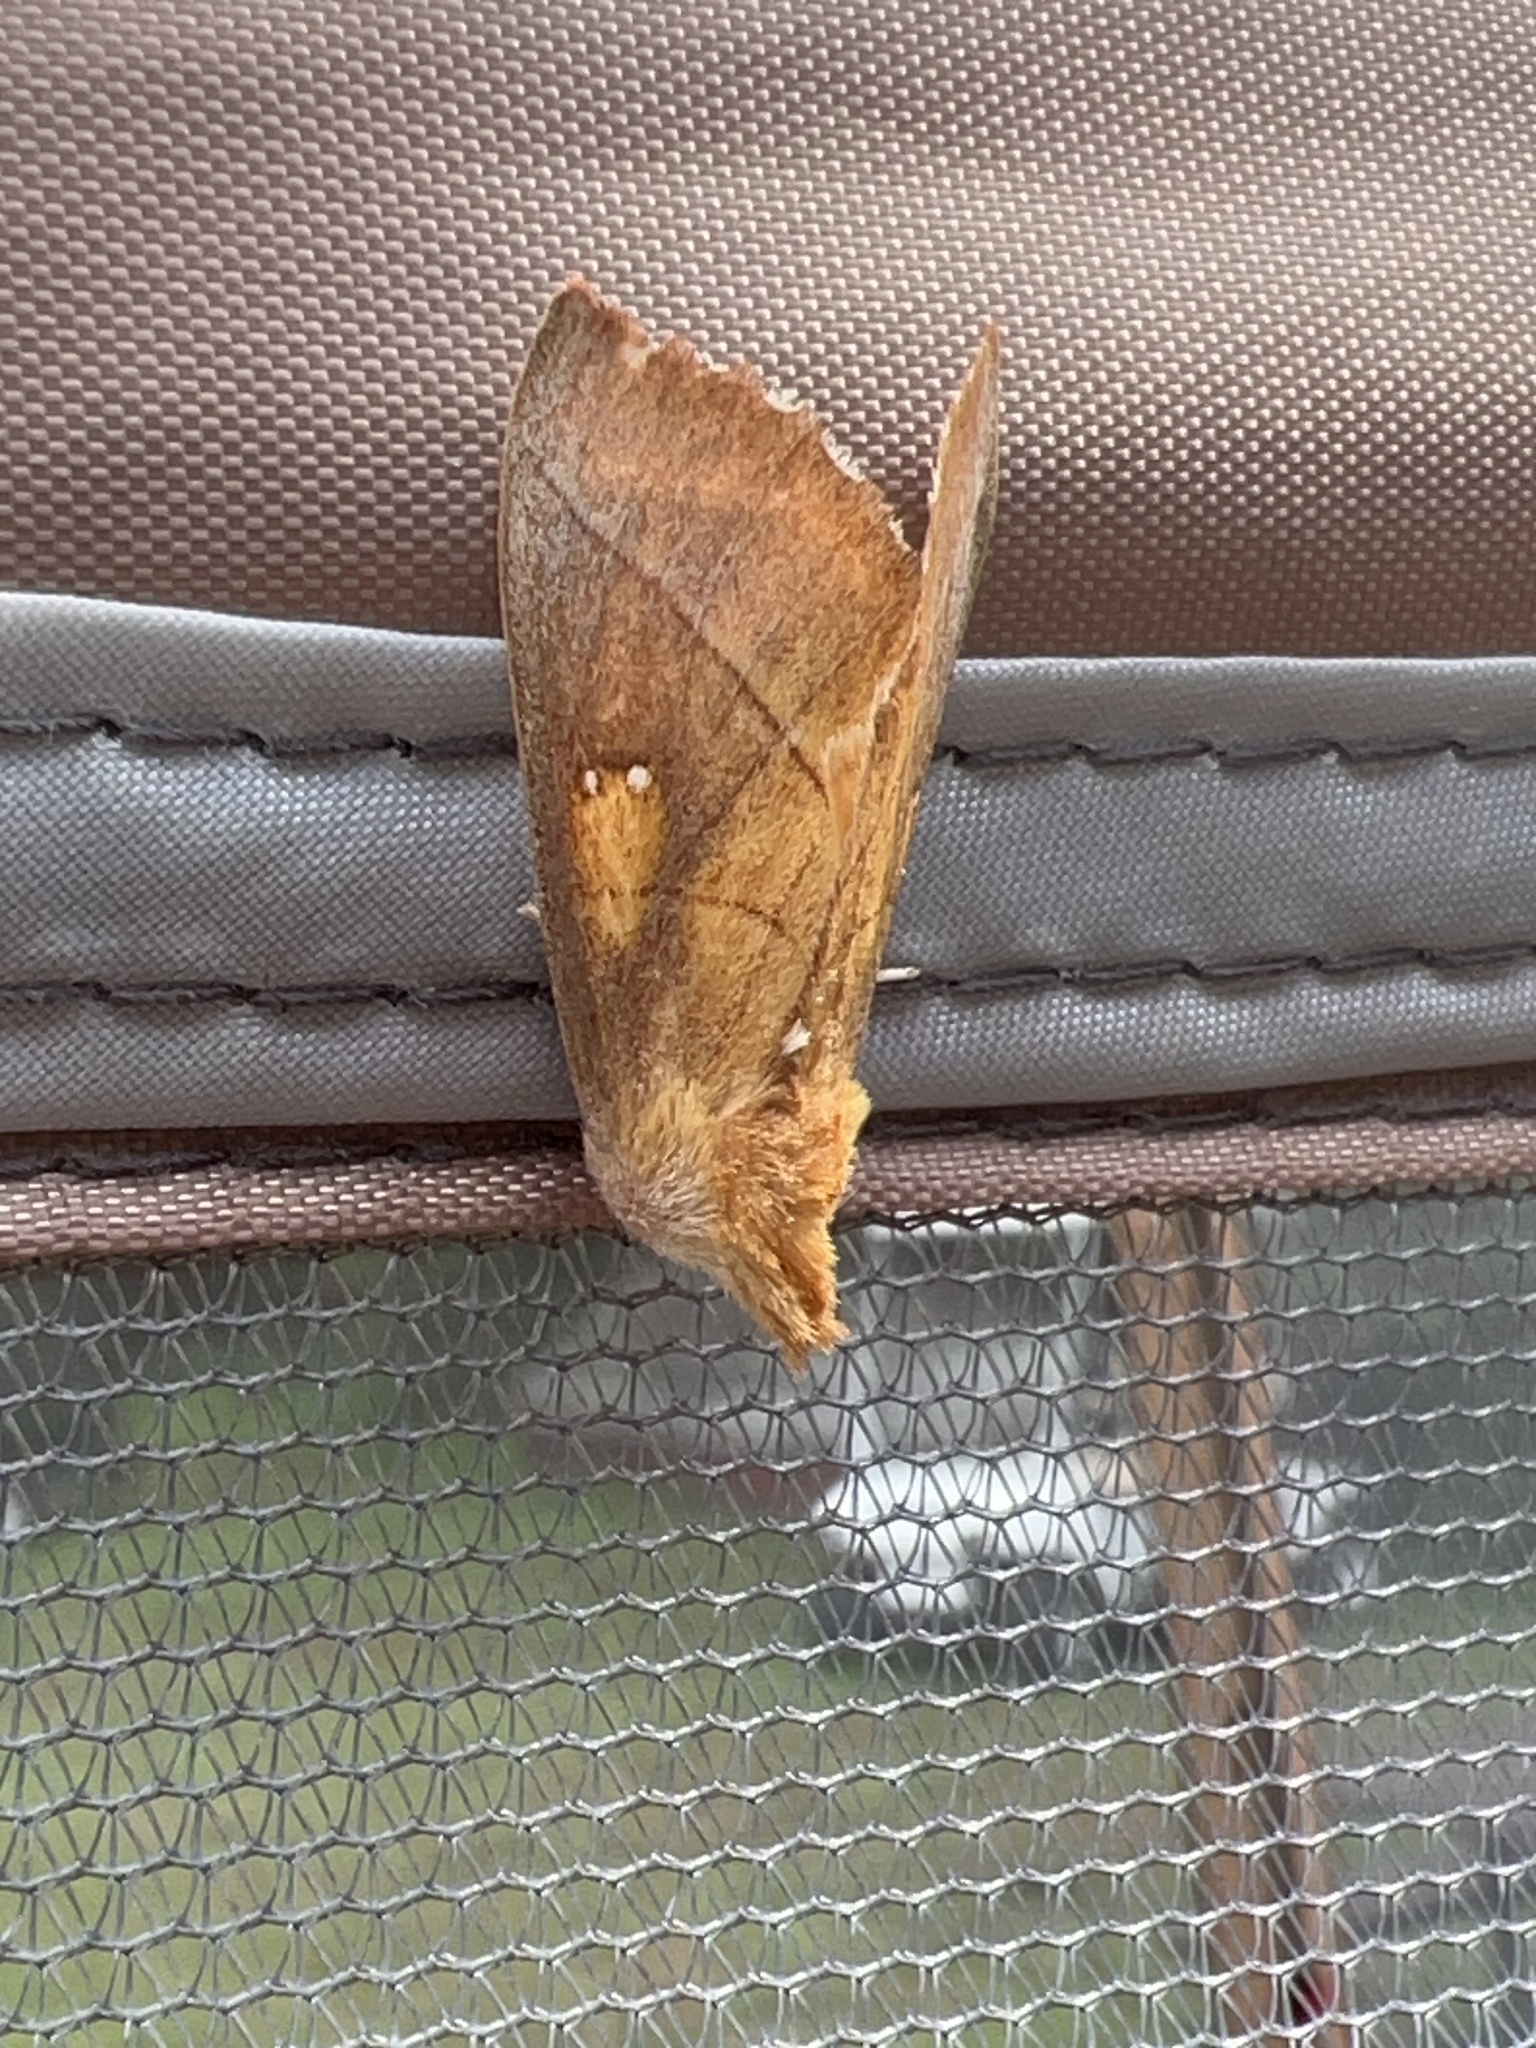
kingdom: Animalia
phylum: Arthropoda
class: Insecta
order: Lepidoptera
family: Notodontidae
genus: Nadata
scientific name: Nadata gibbosa
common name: White-dotted prominent
